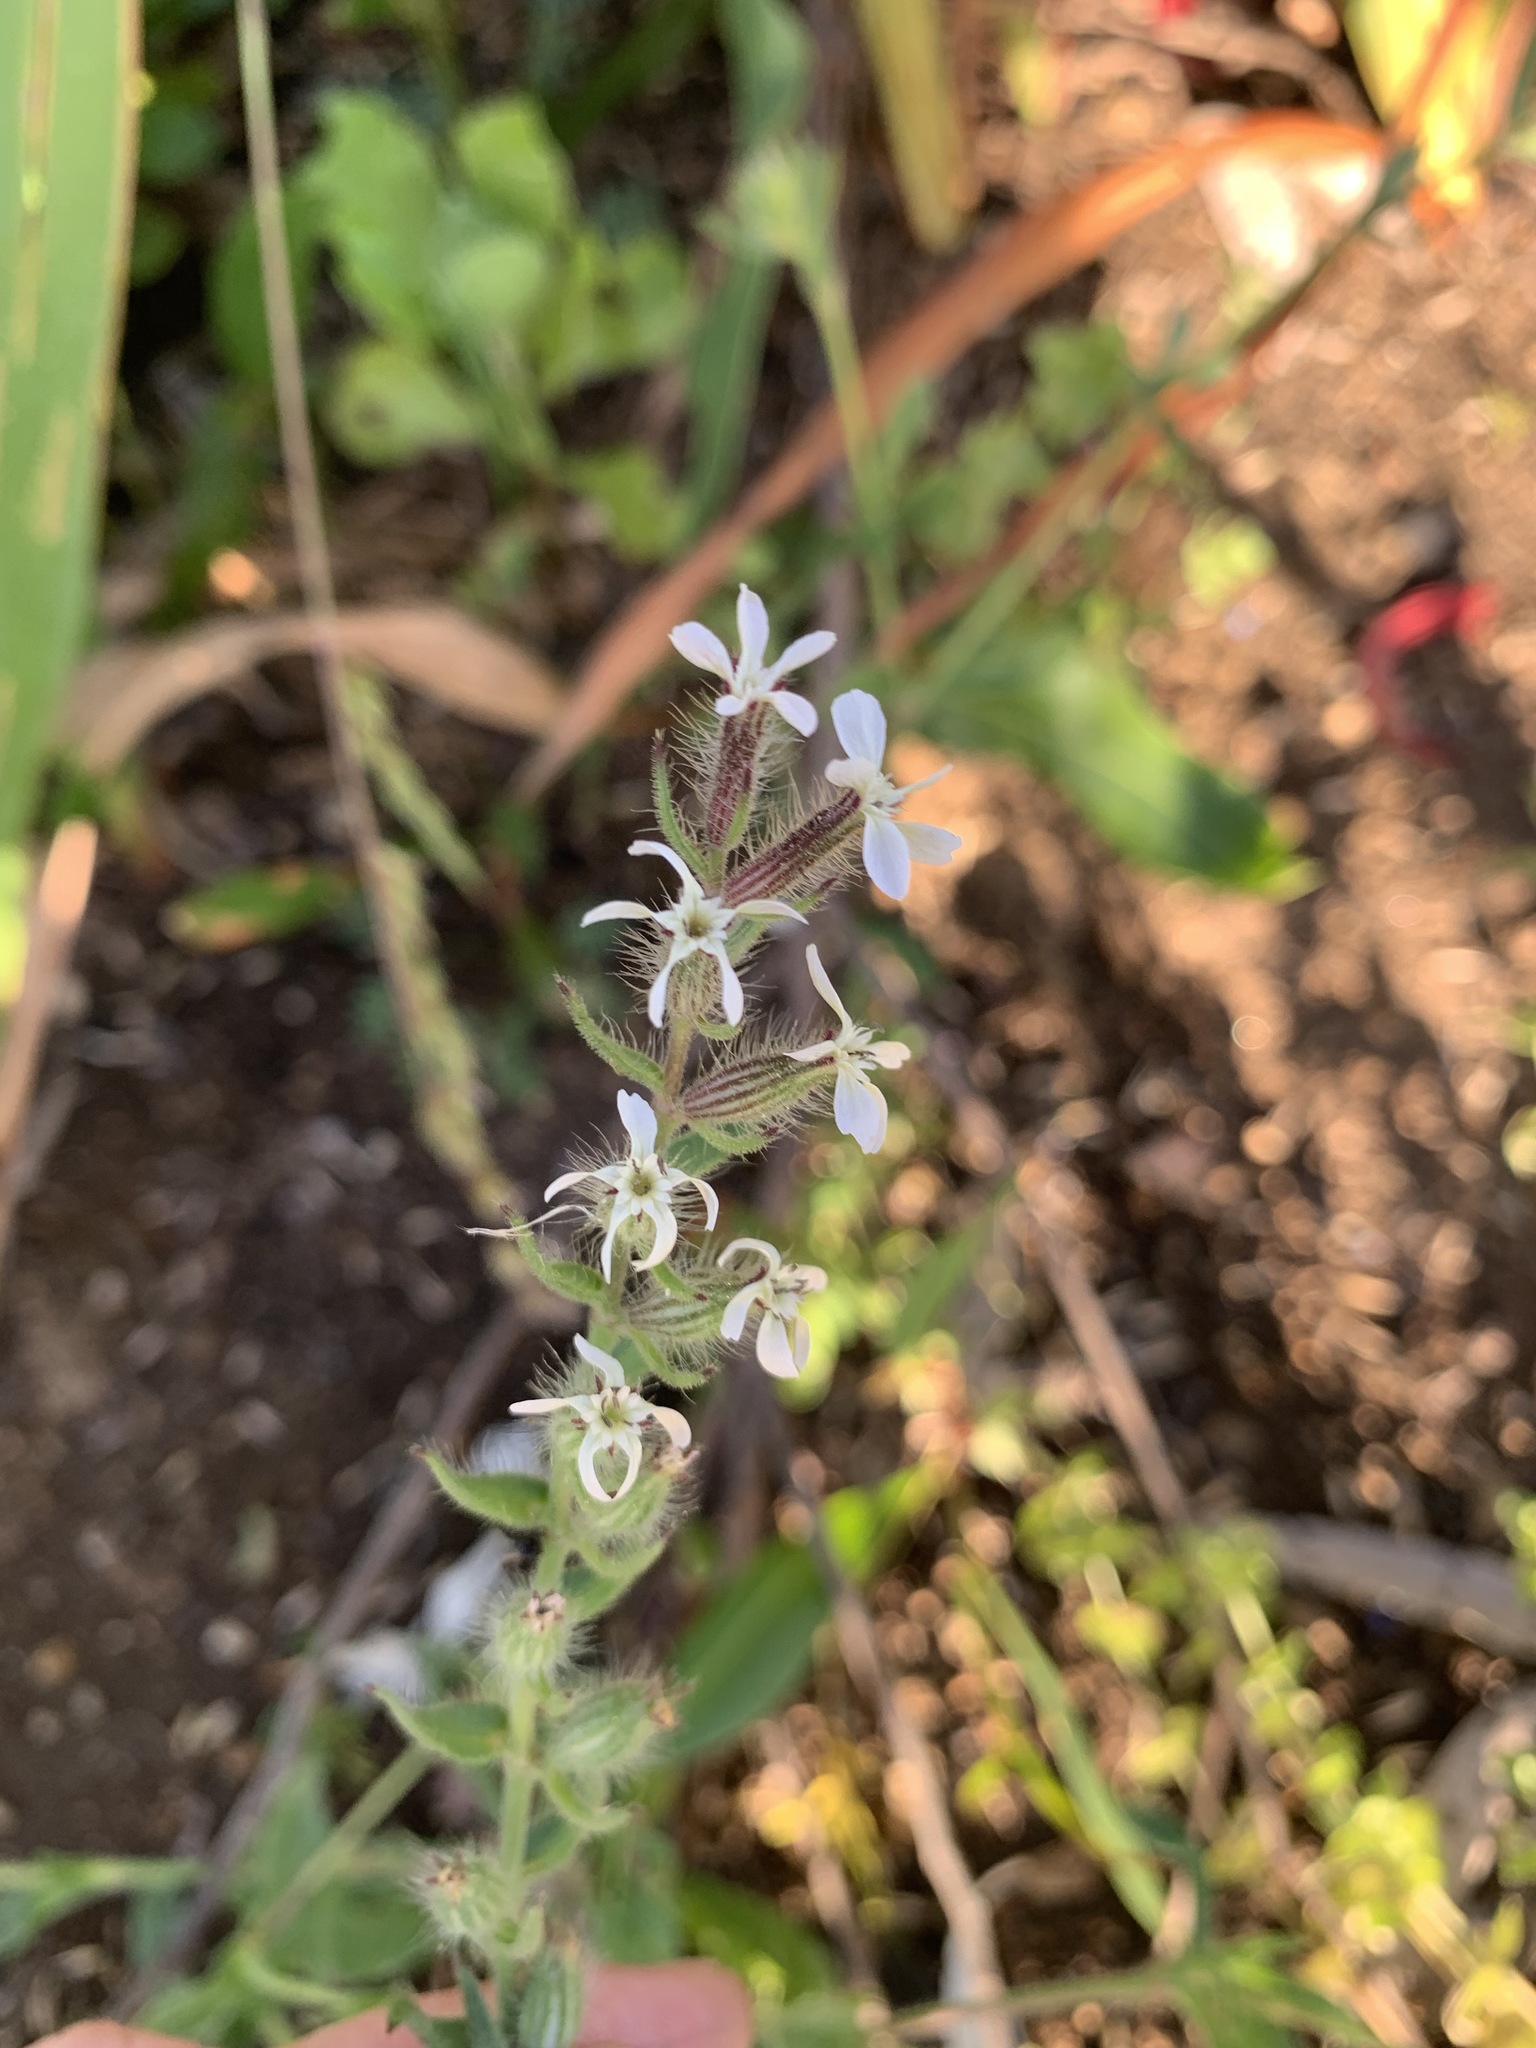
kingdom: Plantae
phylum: Tracheophyta
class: Magnoliopsida
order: Caryophyllales
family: Caryophyllaceae
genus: Silene
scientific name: Silene gallica
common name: Small-flowered catchfly
